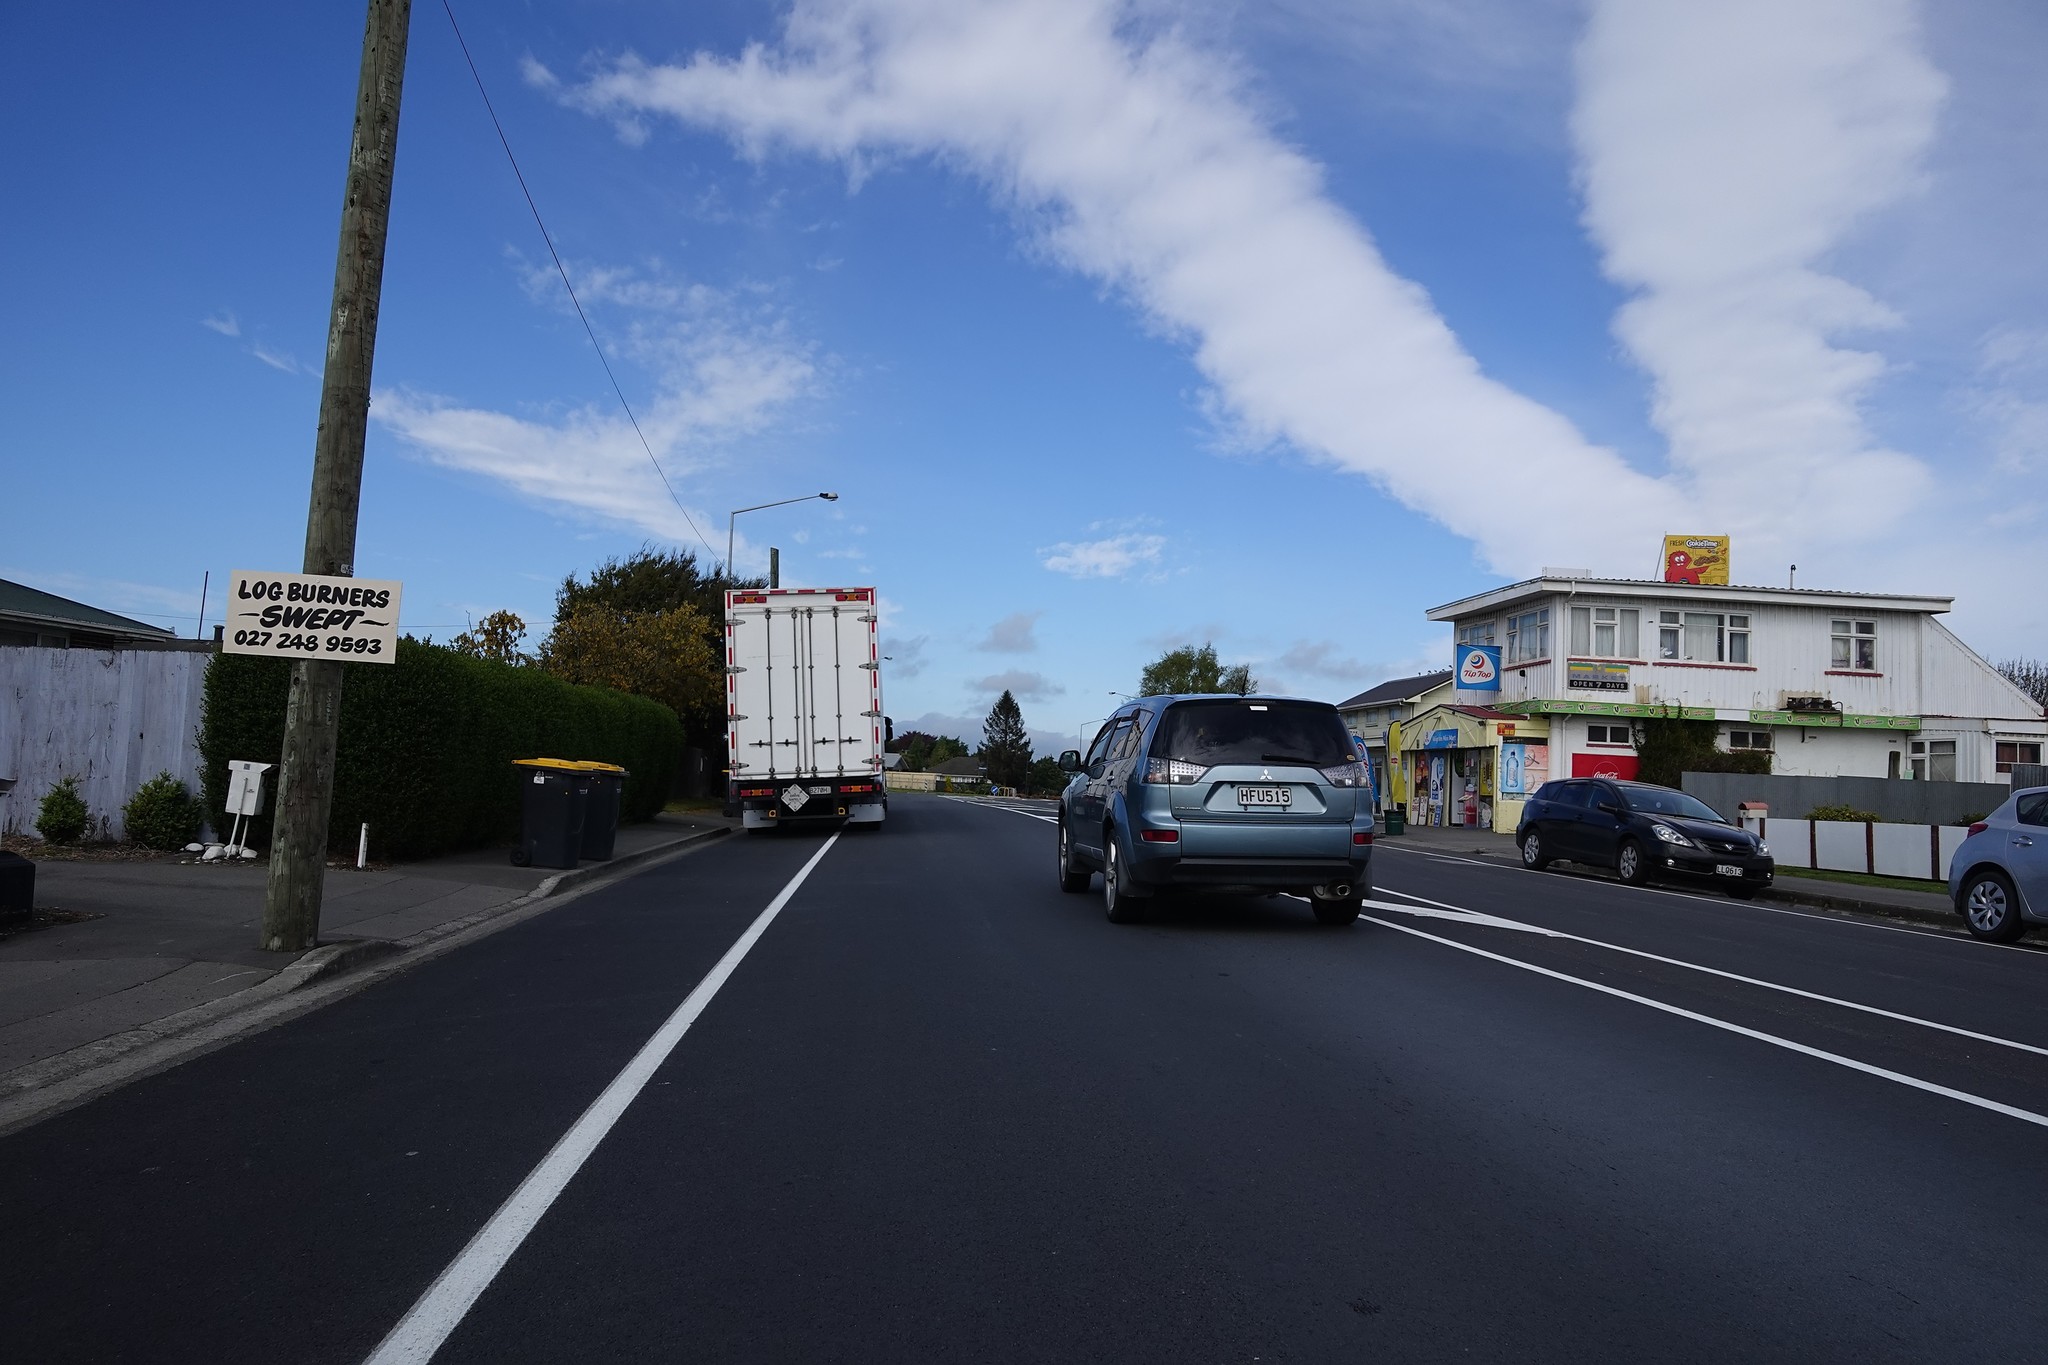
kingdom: Plantae
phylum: Tracheophyta
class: Magnoliopsida
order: Caryophyllales
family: Basellaceae
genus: Anredera
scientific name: Anredera cordifolia
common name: Heartleaf madeiravine
